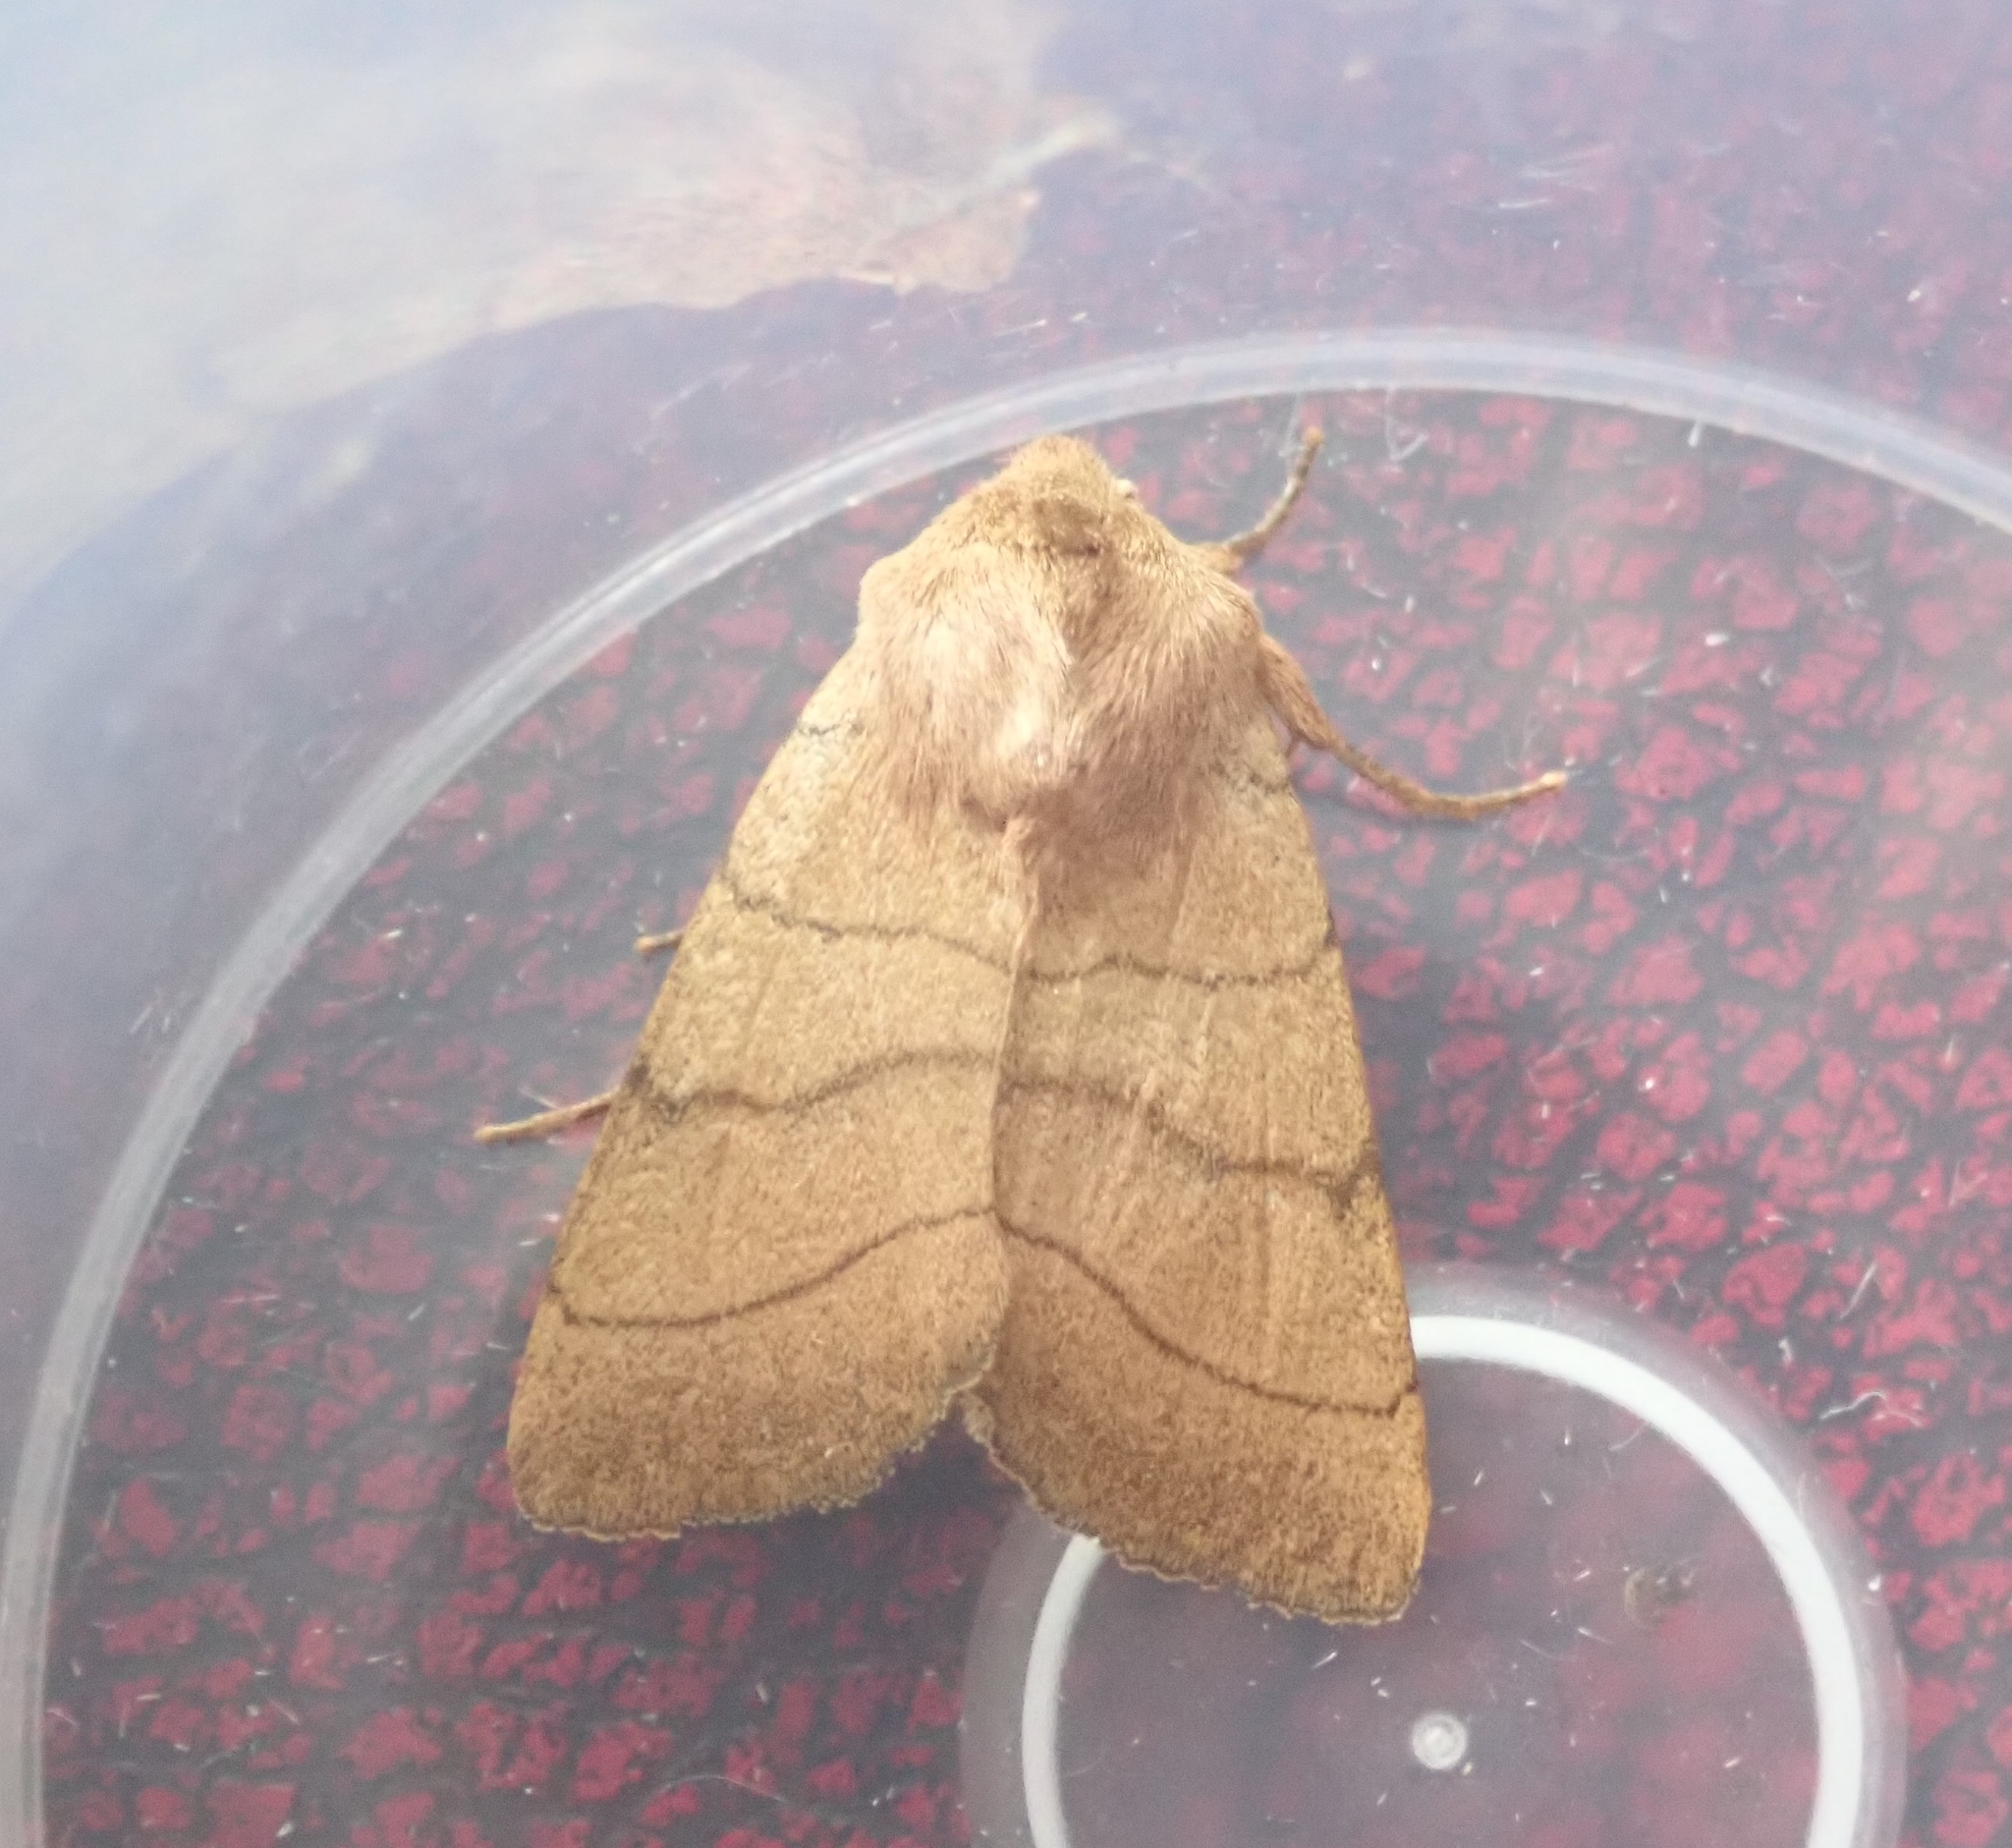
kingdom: Animalia
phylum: Arthropoda
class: Insecta
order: Lepidoptera
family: Noctuidae
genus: Charanyca
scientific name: Charanyca trigrammica
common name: Treble lines
